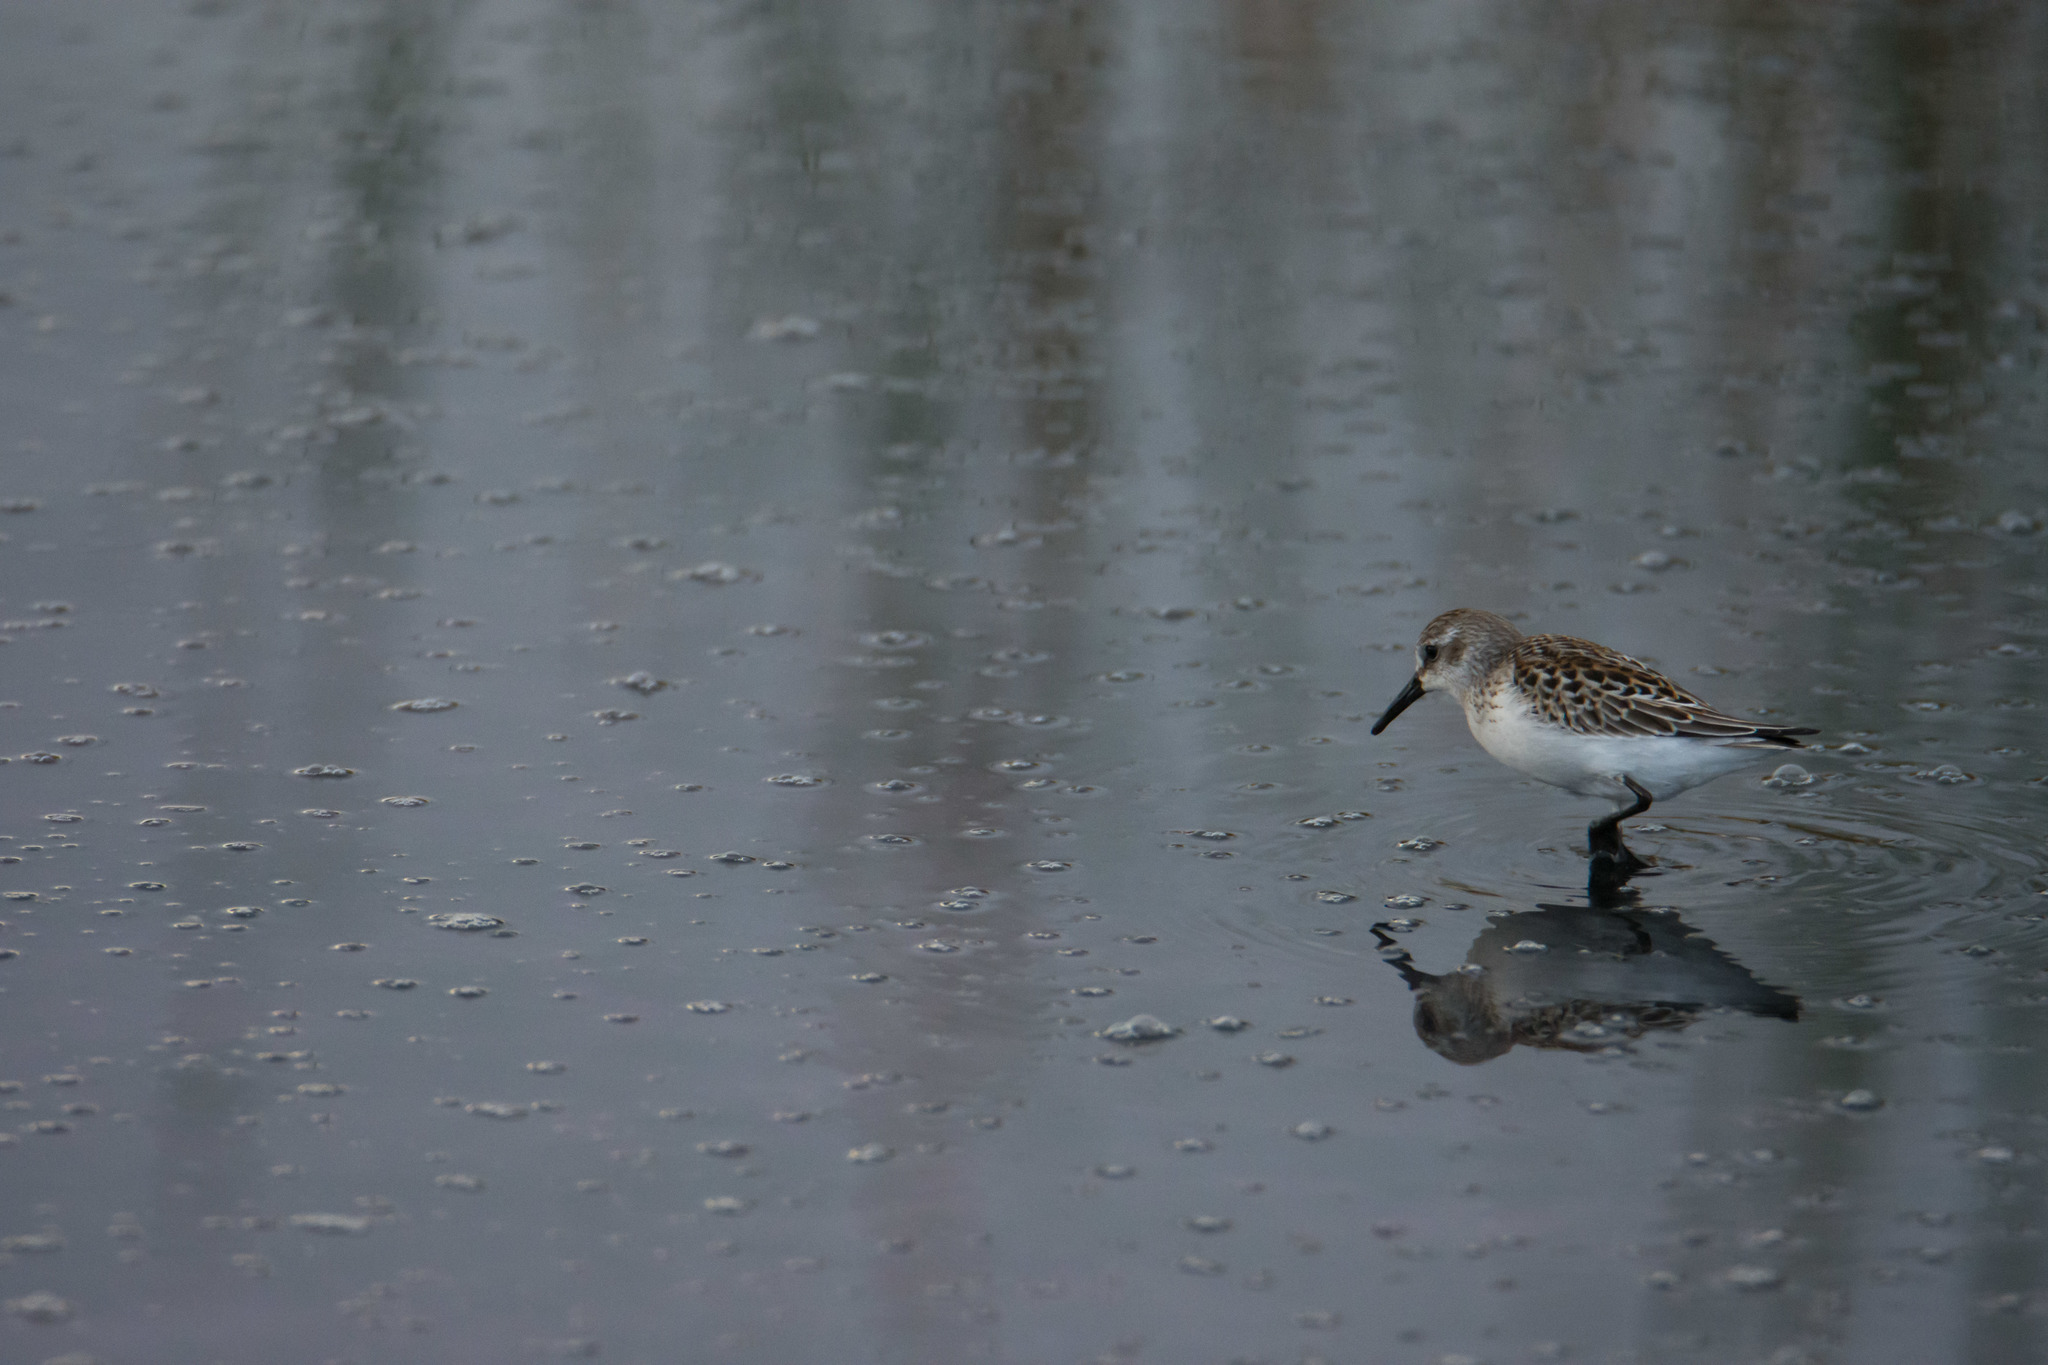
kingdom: Animalia
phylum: Chordata
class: Aves
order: Charadriiformes
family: Scolopacidae
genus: Calidris
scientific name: Calidris mauri
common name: Western sandpiper
